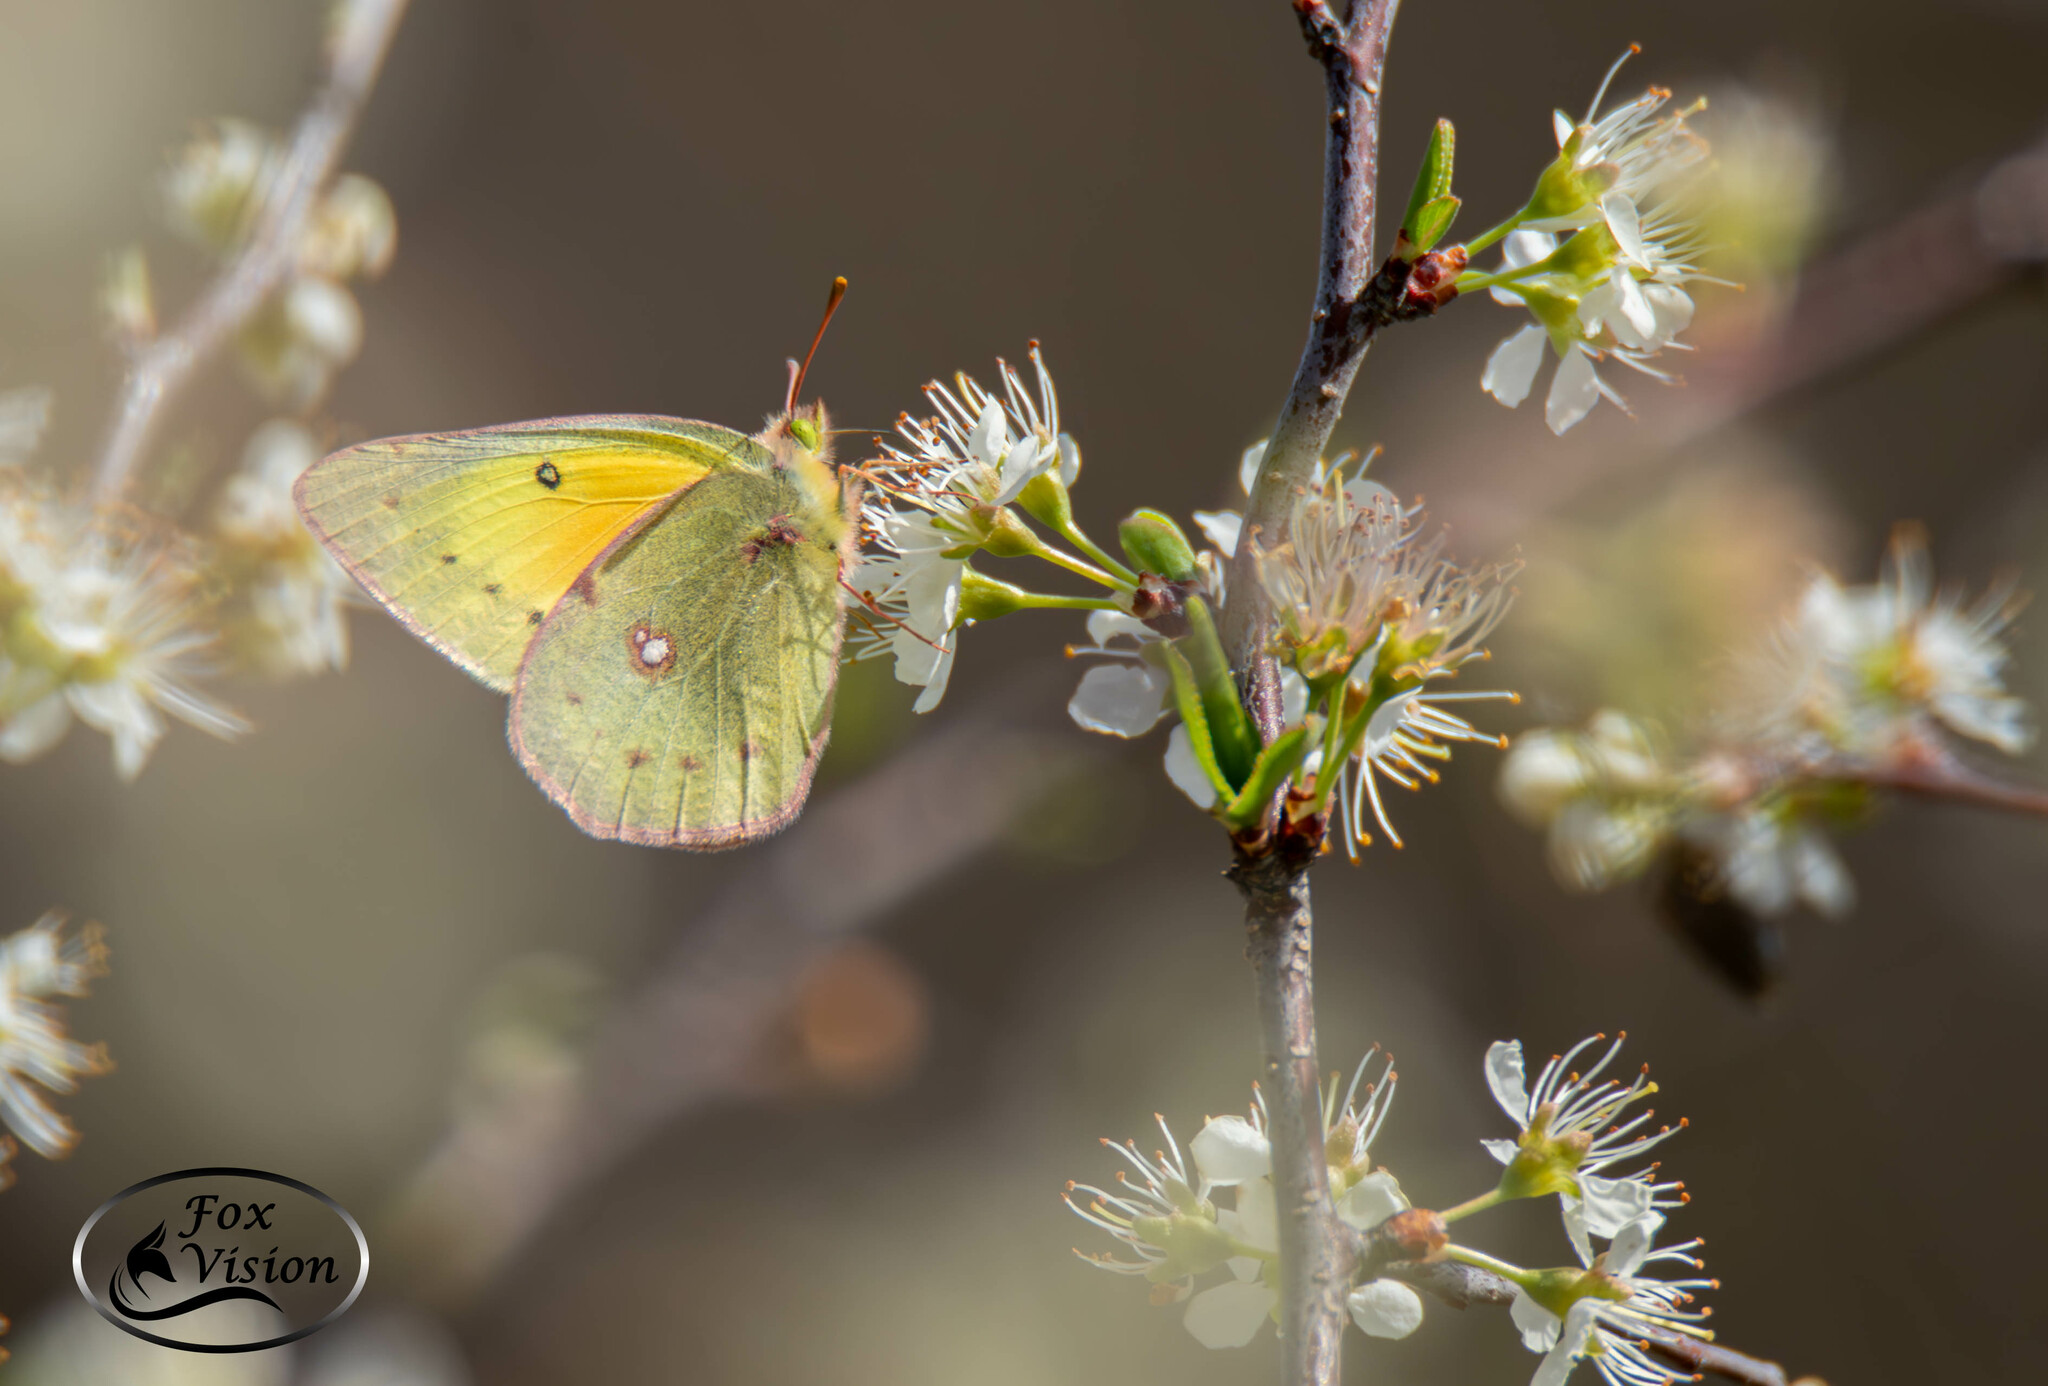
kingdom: Animalia
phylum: Arthropoda
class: Insecta
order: Lepidoptera
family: Pieridae
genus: Colias
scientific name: Colias eurytheme
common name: Alfalfa butterfly
